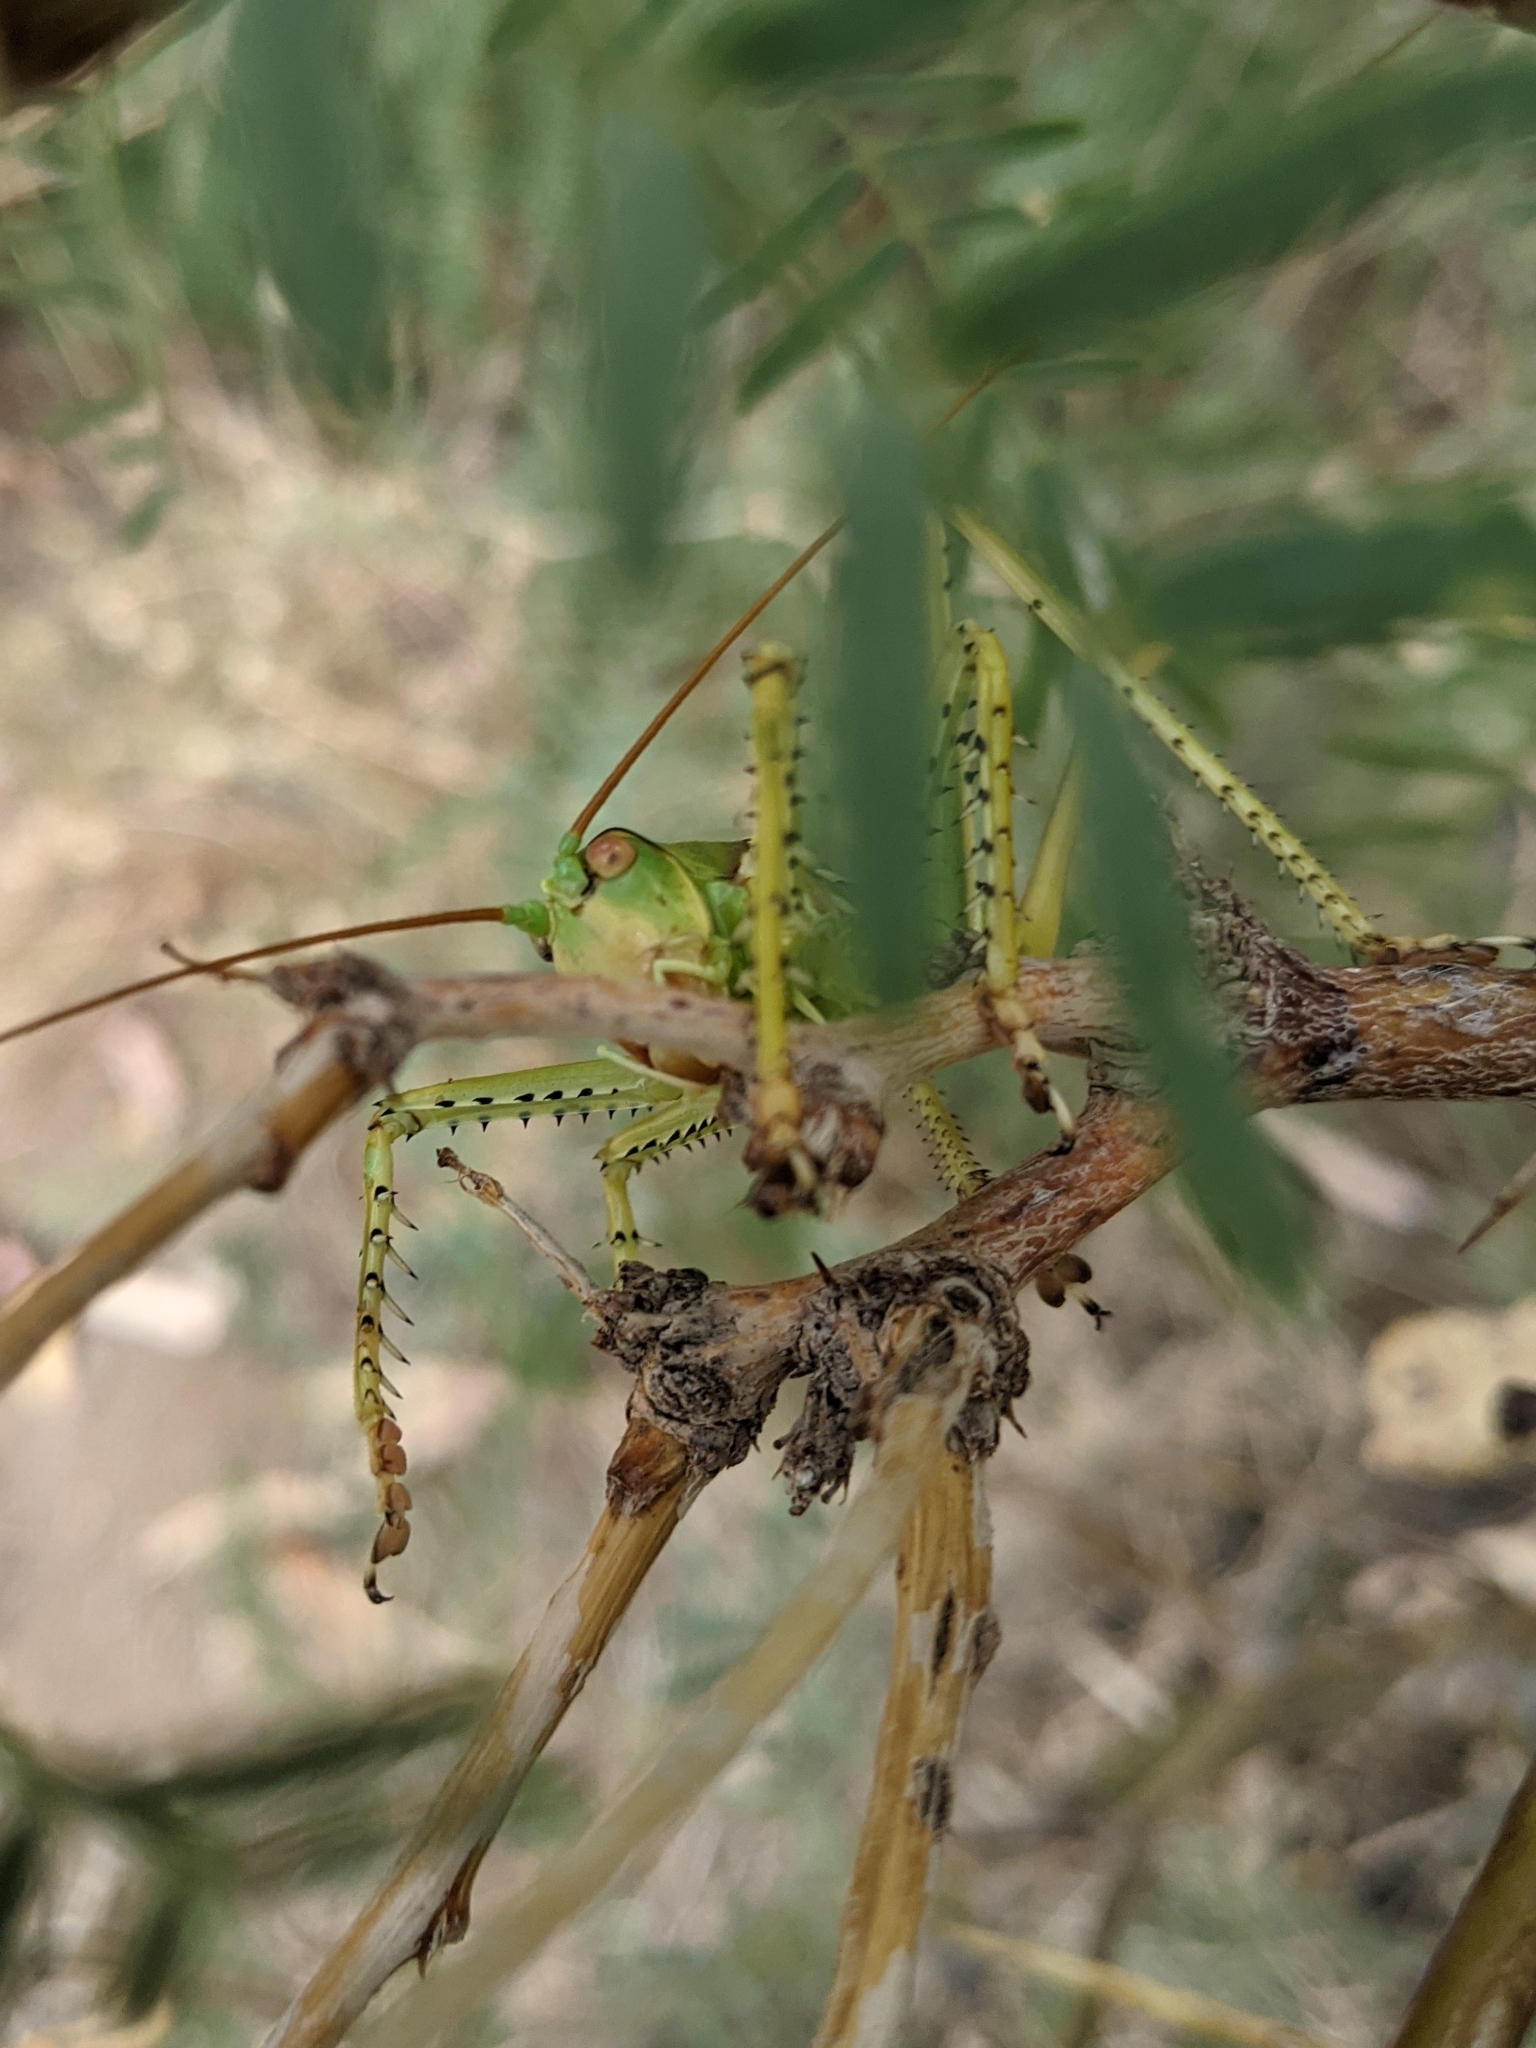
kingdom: Animalia
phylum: Arthropoda
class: Insecta
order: Orthoptera
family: Tettigoniidae
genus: Neobarrettia
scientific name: Neobarrettia spinosa
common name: Greater arid-land katydid
